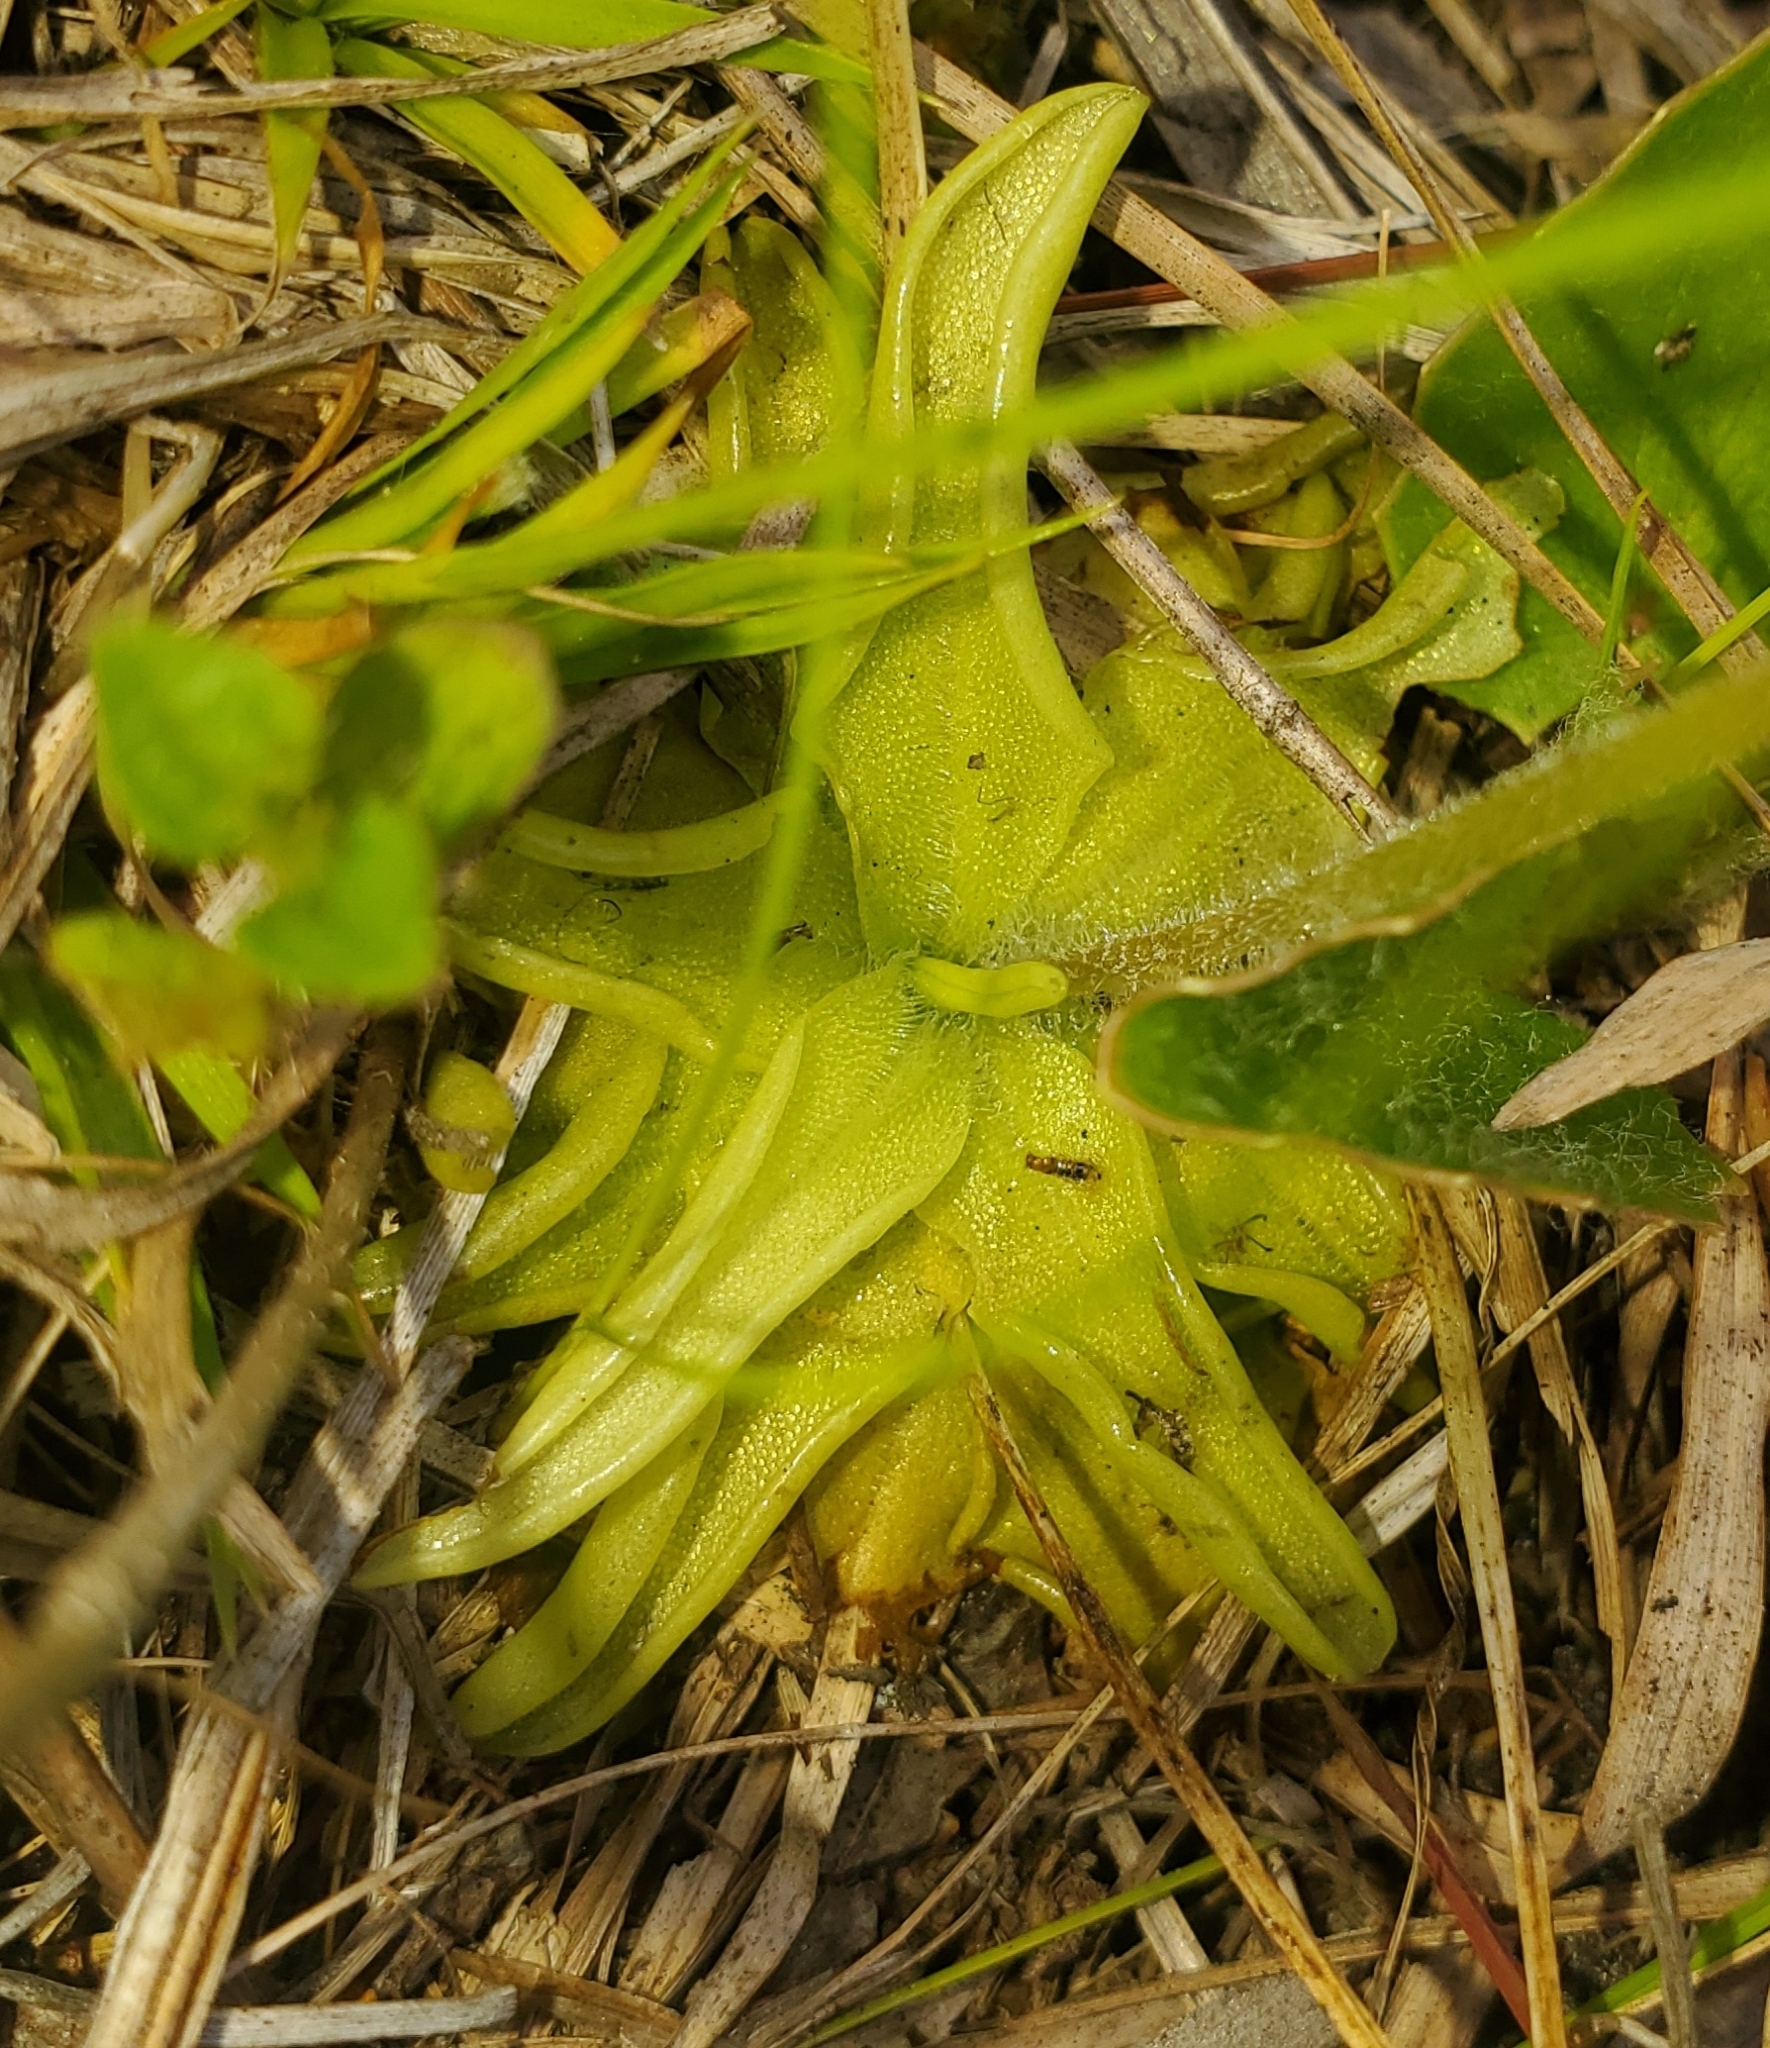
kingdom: Plantae
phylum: Tracheophyta
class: Magnoliopsida
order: Lamiales
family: Lentibulariaceae
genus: Pinguicula
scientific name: Pinguicula caerulea
